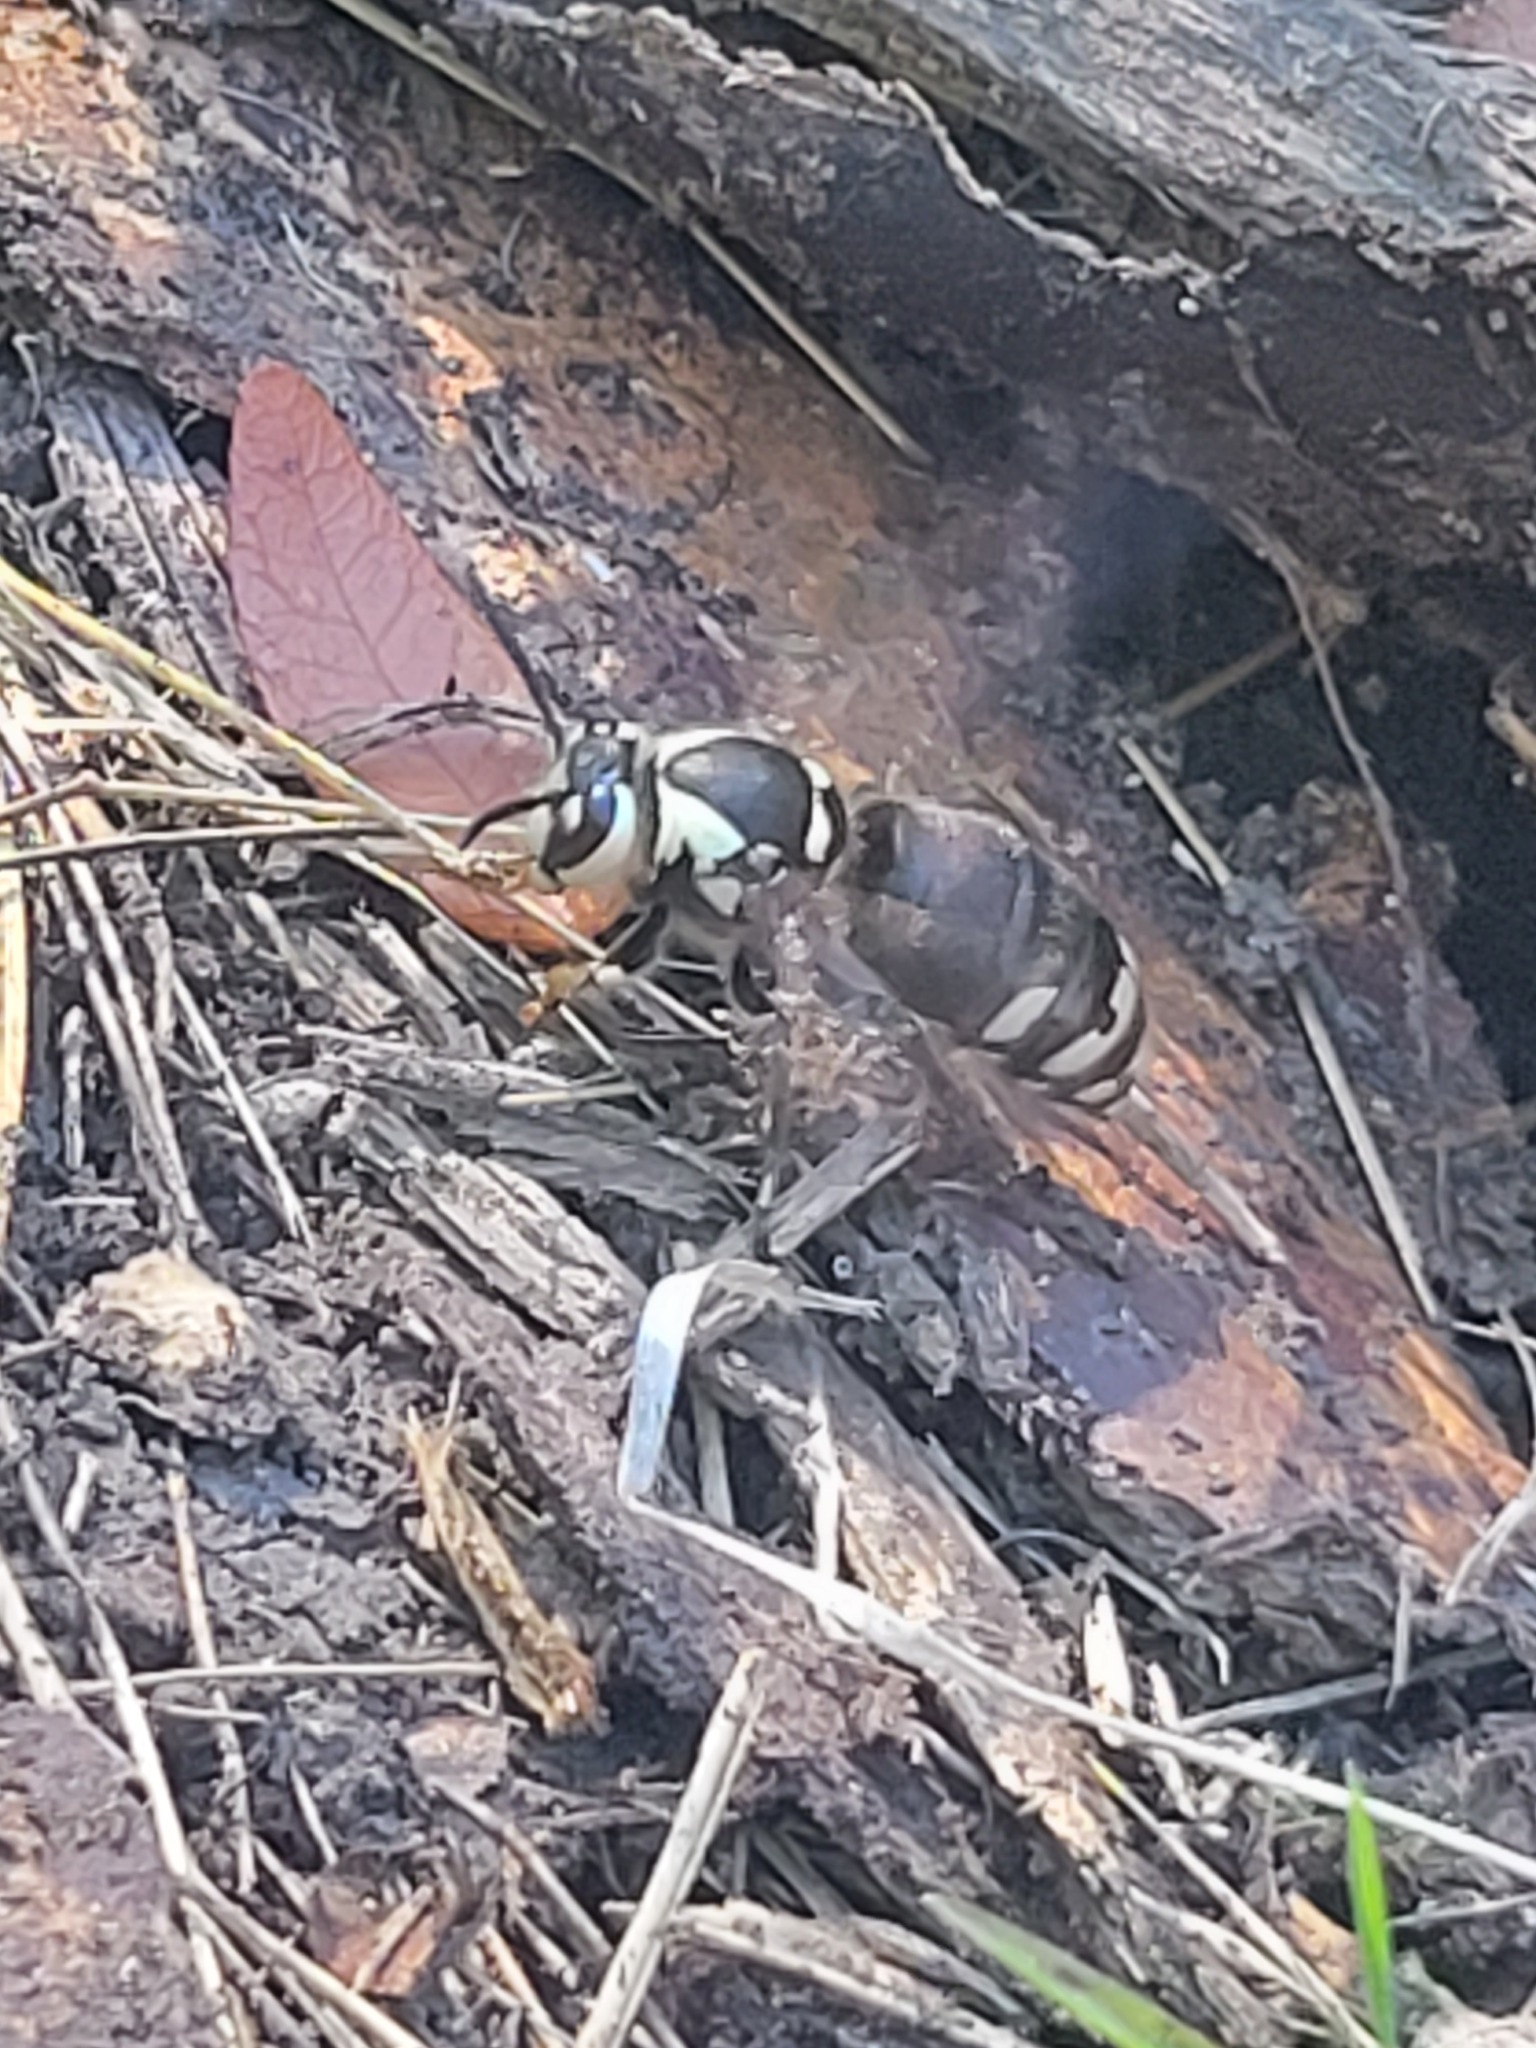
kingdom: Animalia
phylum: Arthropoda
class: Insecta
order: Hymenoptera
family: Vespidae
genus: Dolichovespula
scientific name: Dolichovespula maculata
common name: Bald-faced hornet
